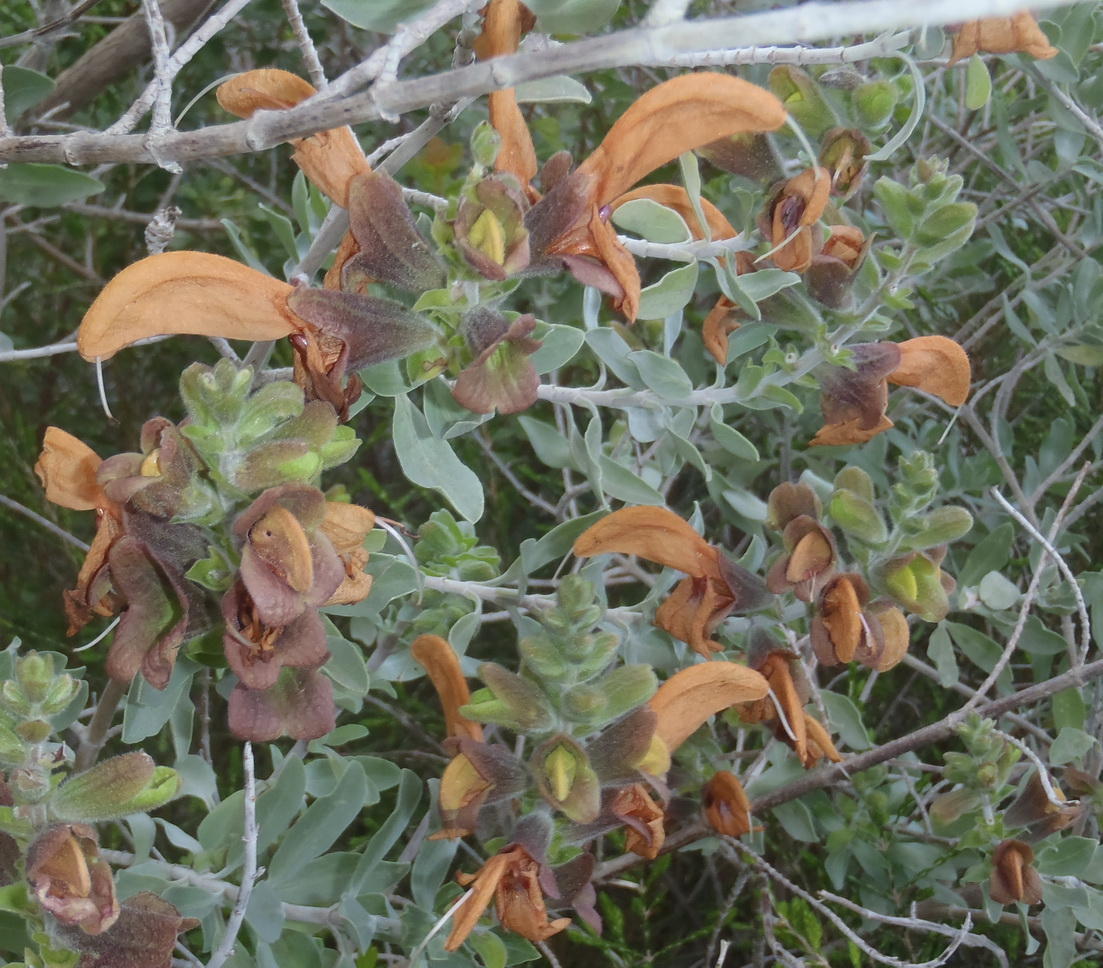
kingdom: Plantae
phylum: Tracheophyta
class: Magnoliopsida
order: Lamiales
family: Lamiaceae
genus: Salvia
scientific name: Salvia aurea
